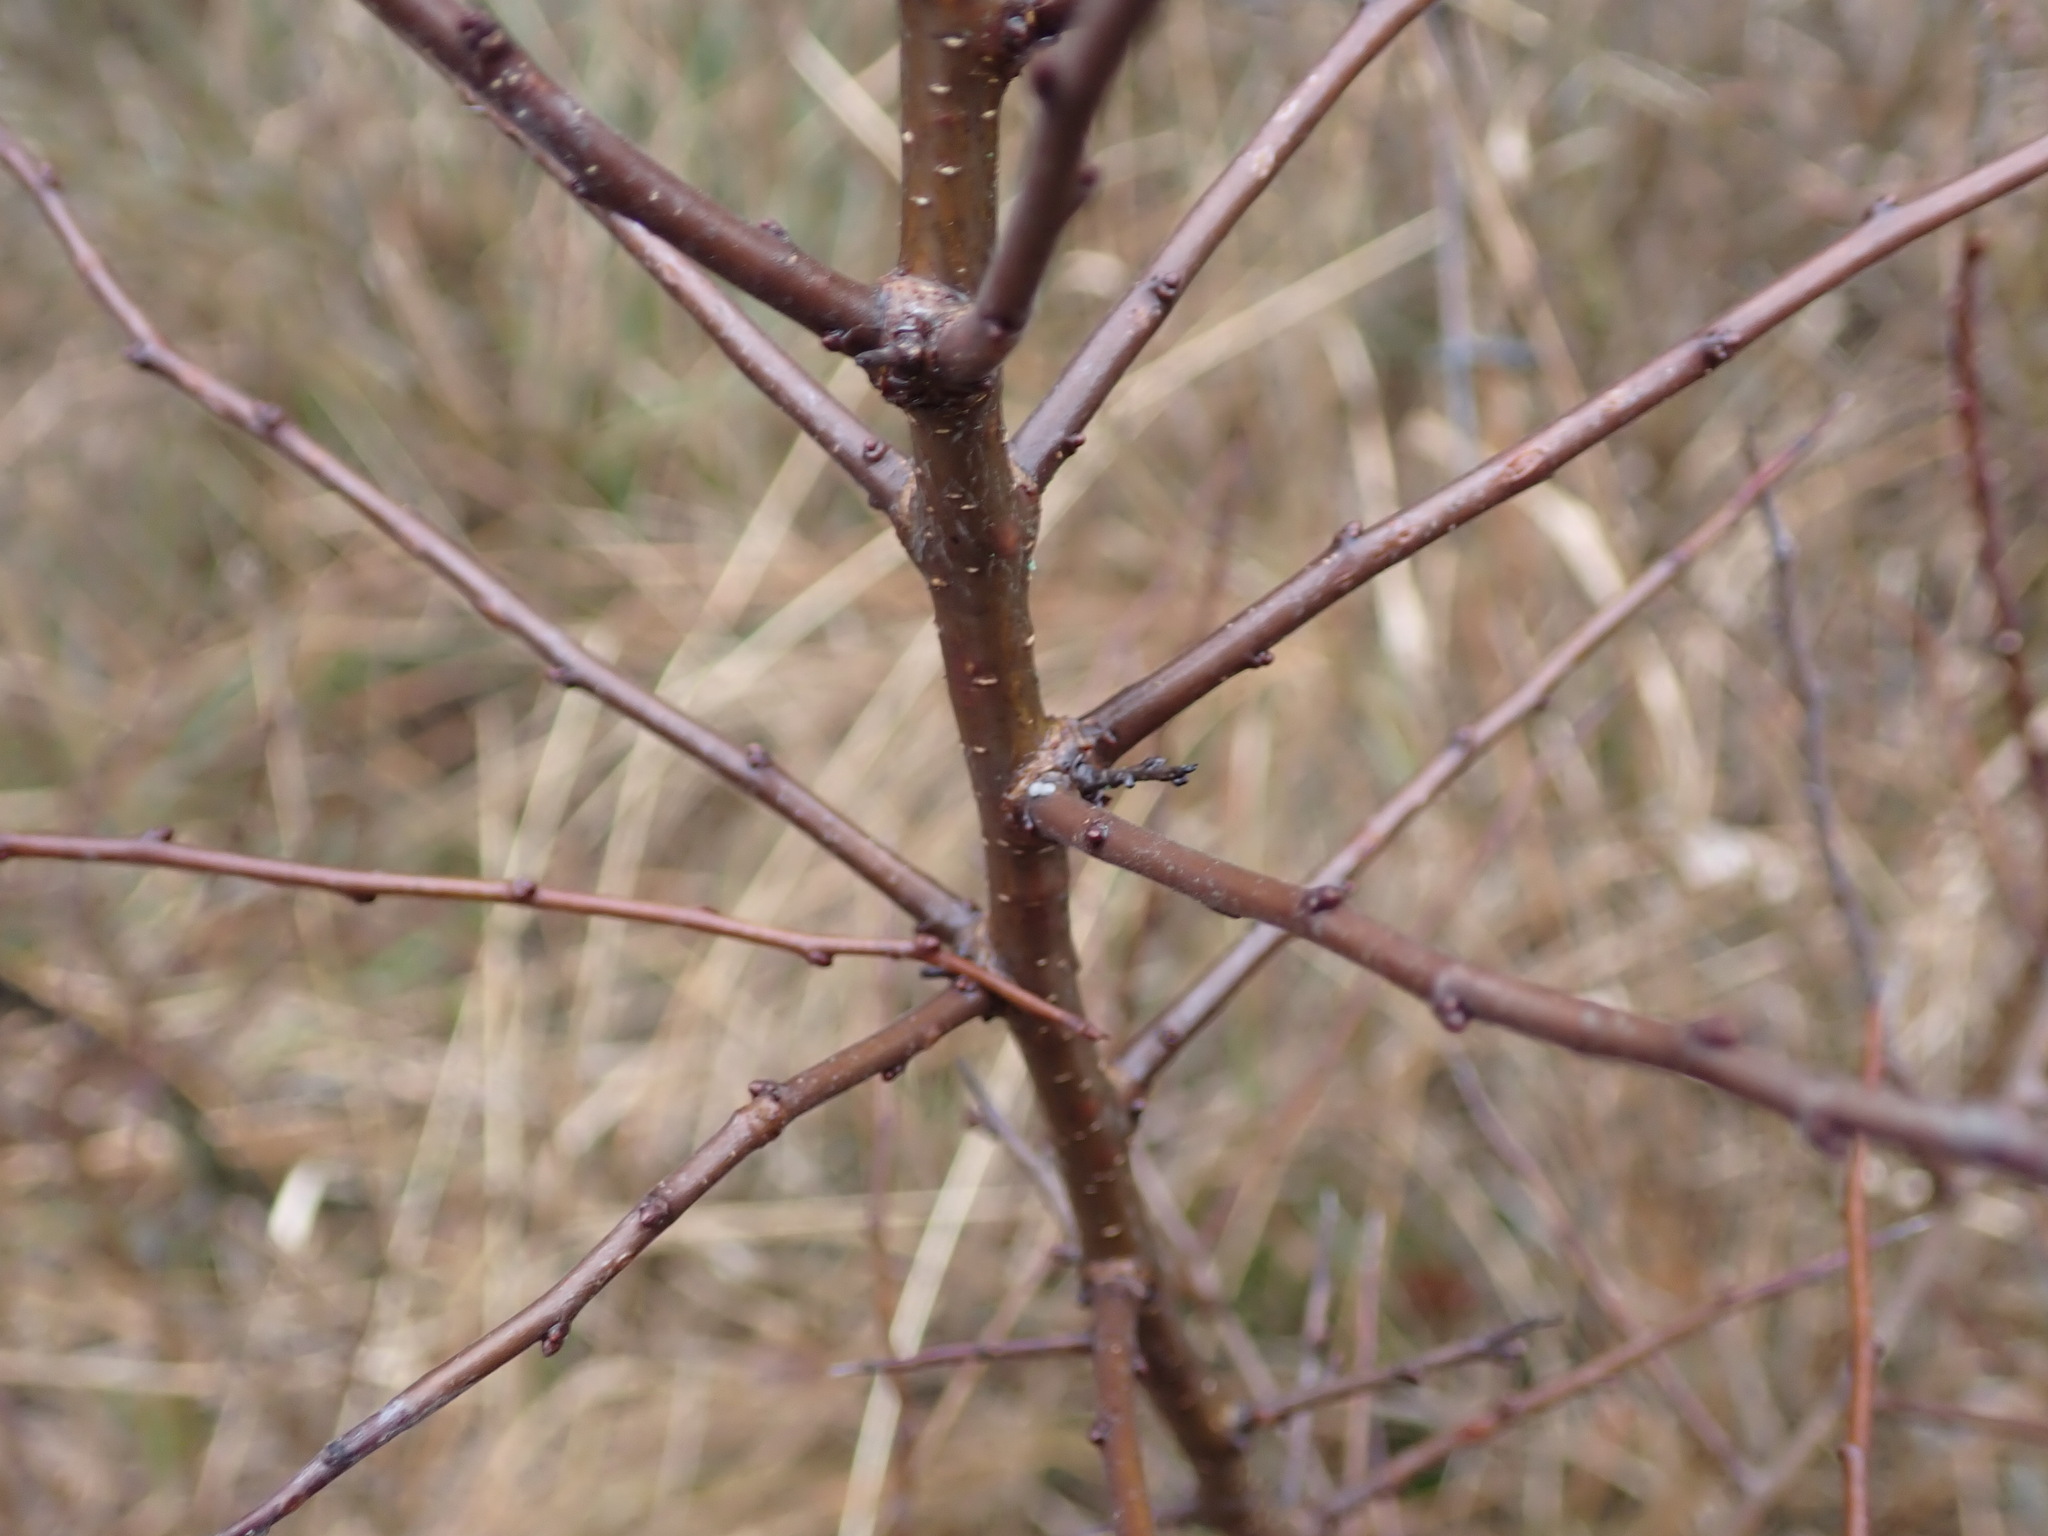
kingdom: Animalia
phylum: Arthropoda
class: Insecta
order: Lepidoptera
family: Lycaenidae
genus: Thecla
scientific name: Thecla betulae
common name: Brown hairstreak
